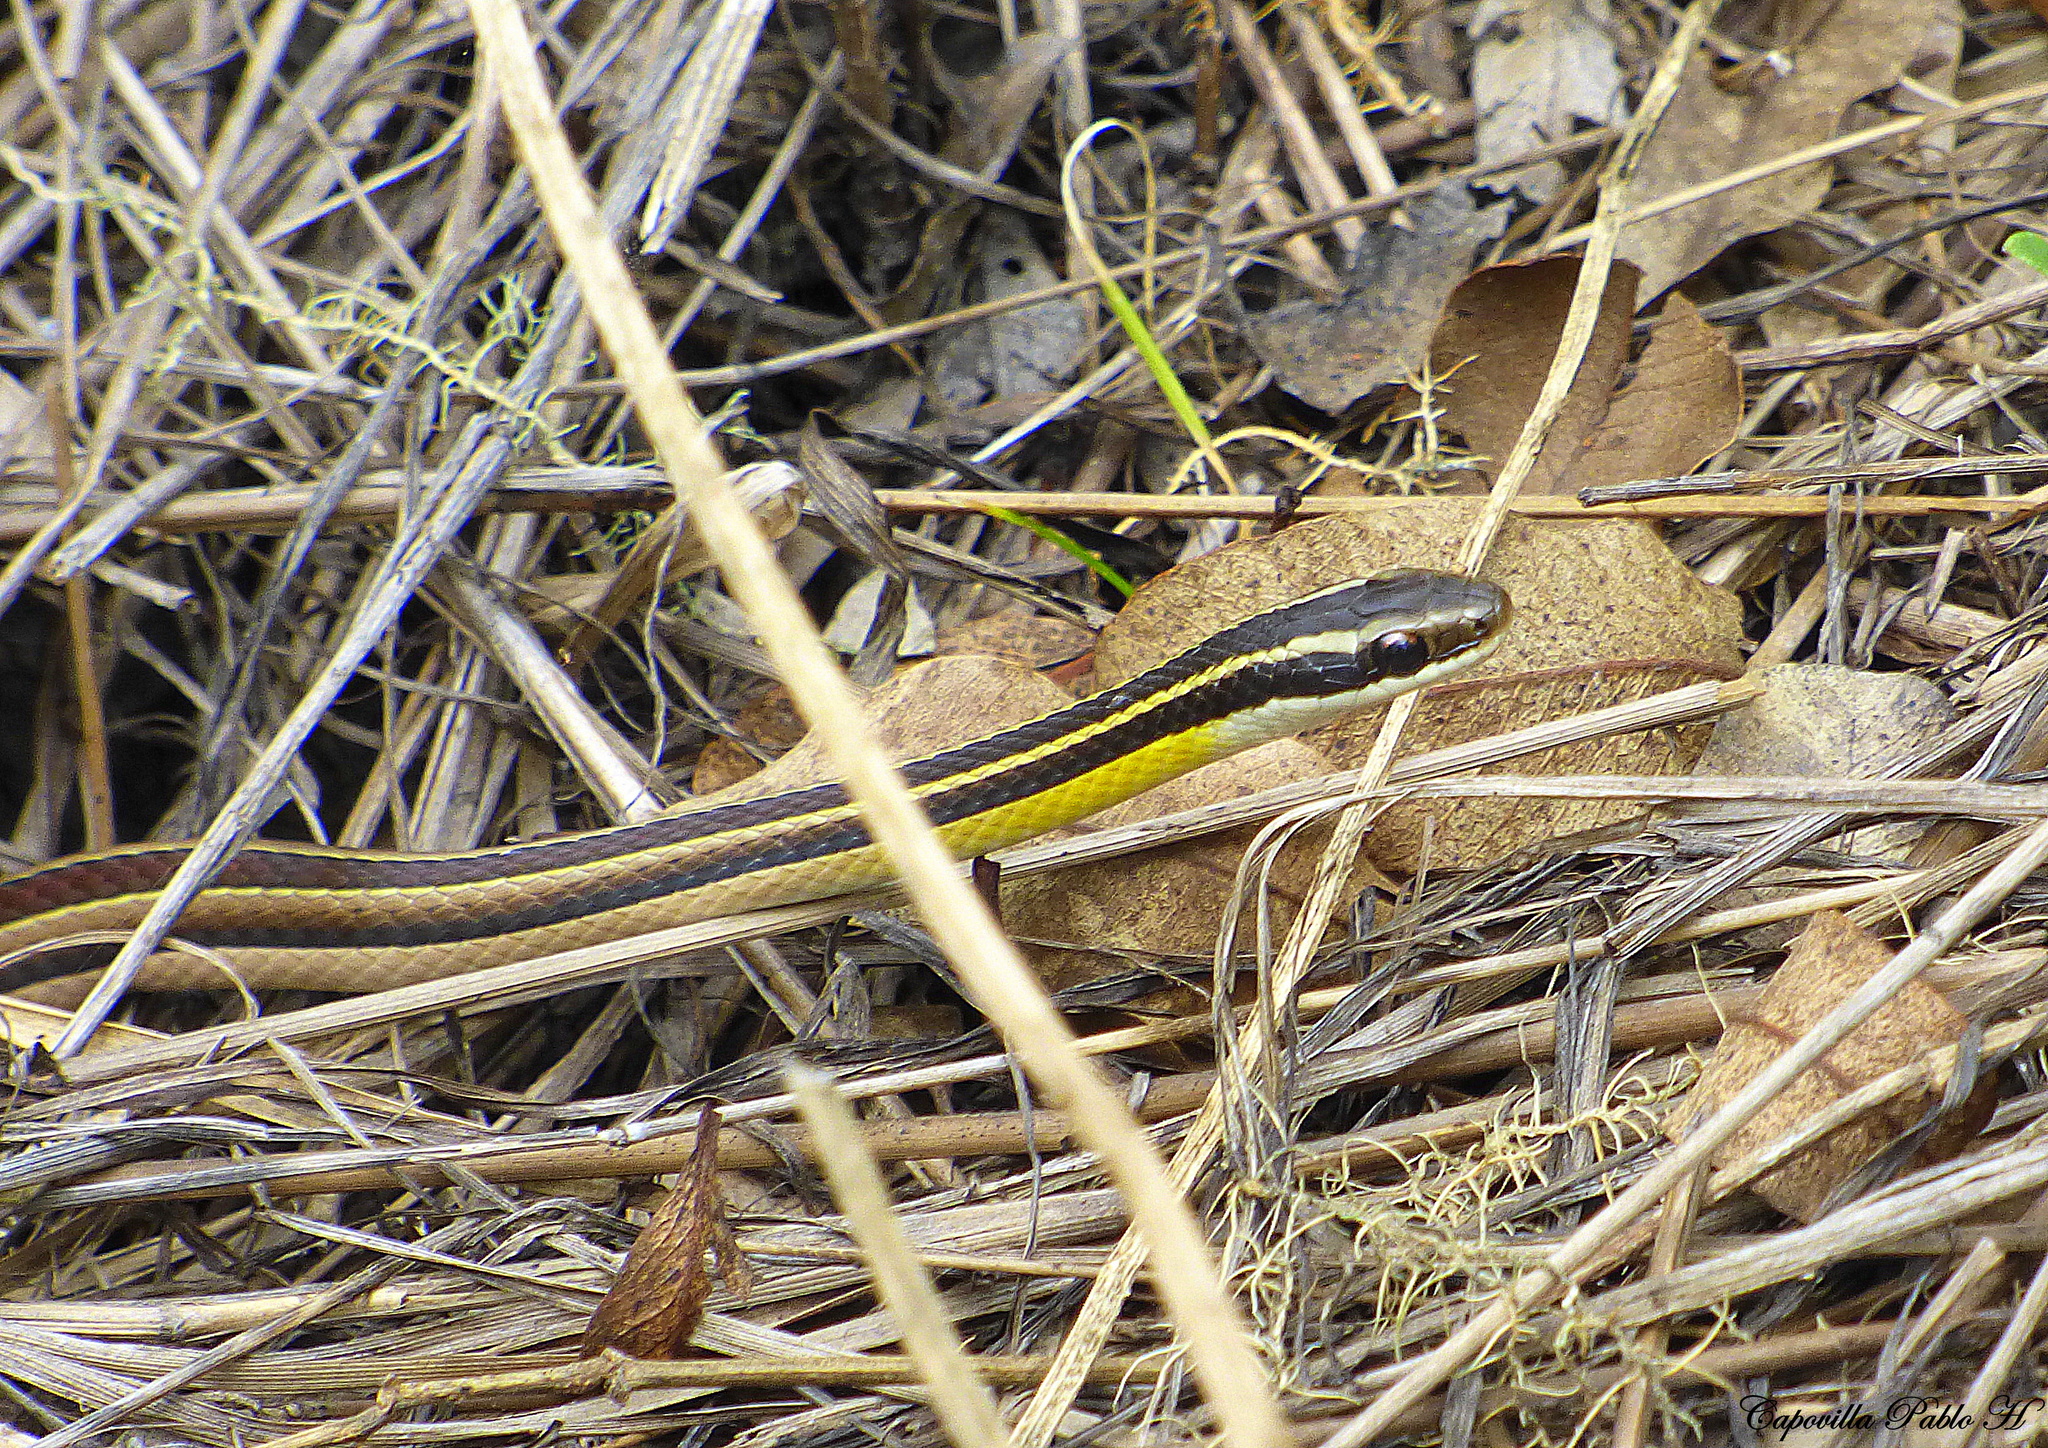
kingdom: Animalia
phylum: Chordata
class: Squamata
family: Colubridae
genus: Lygophis
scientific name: Lygophis dilepis
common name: Lema's ground snake
